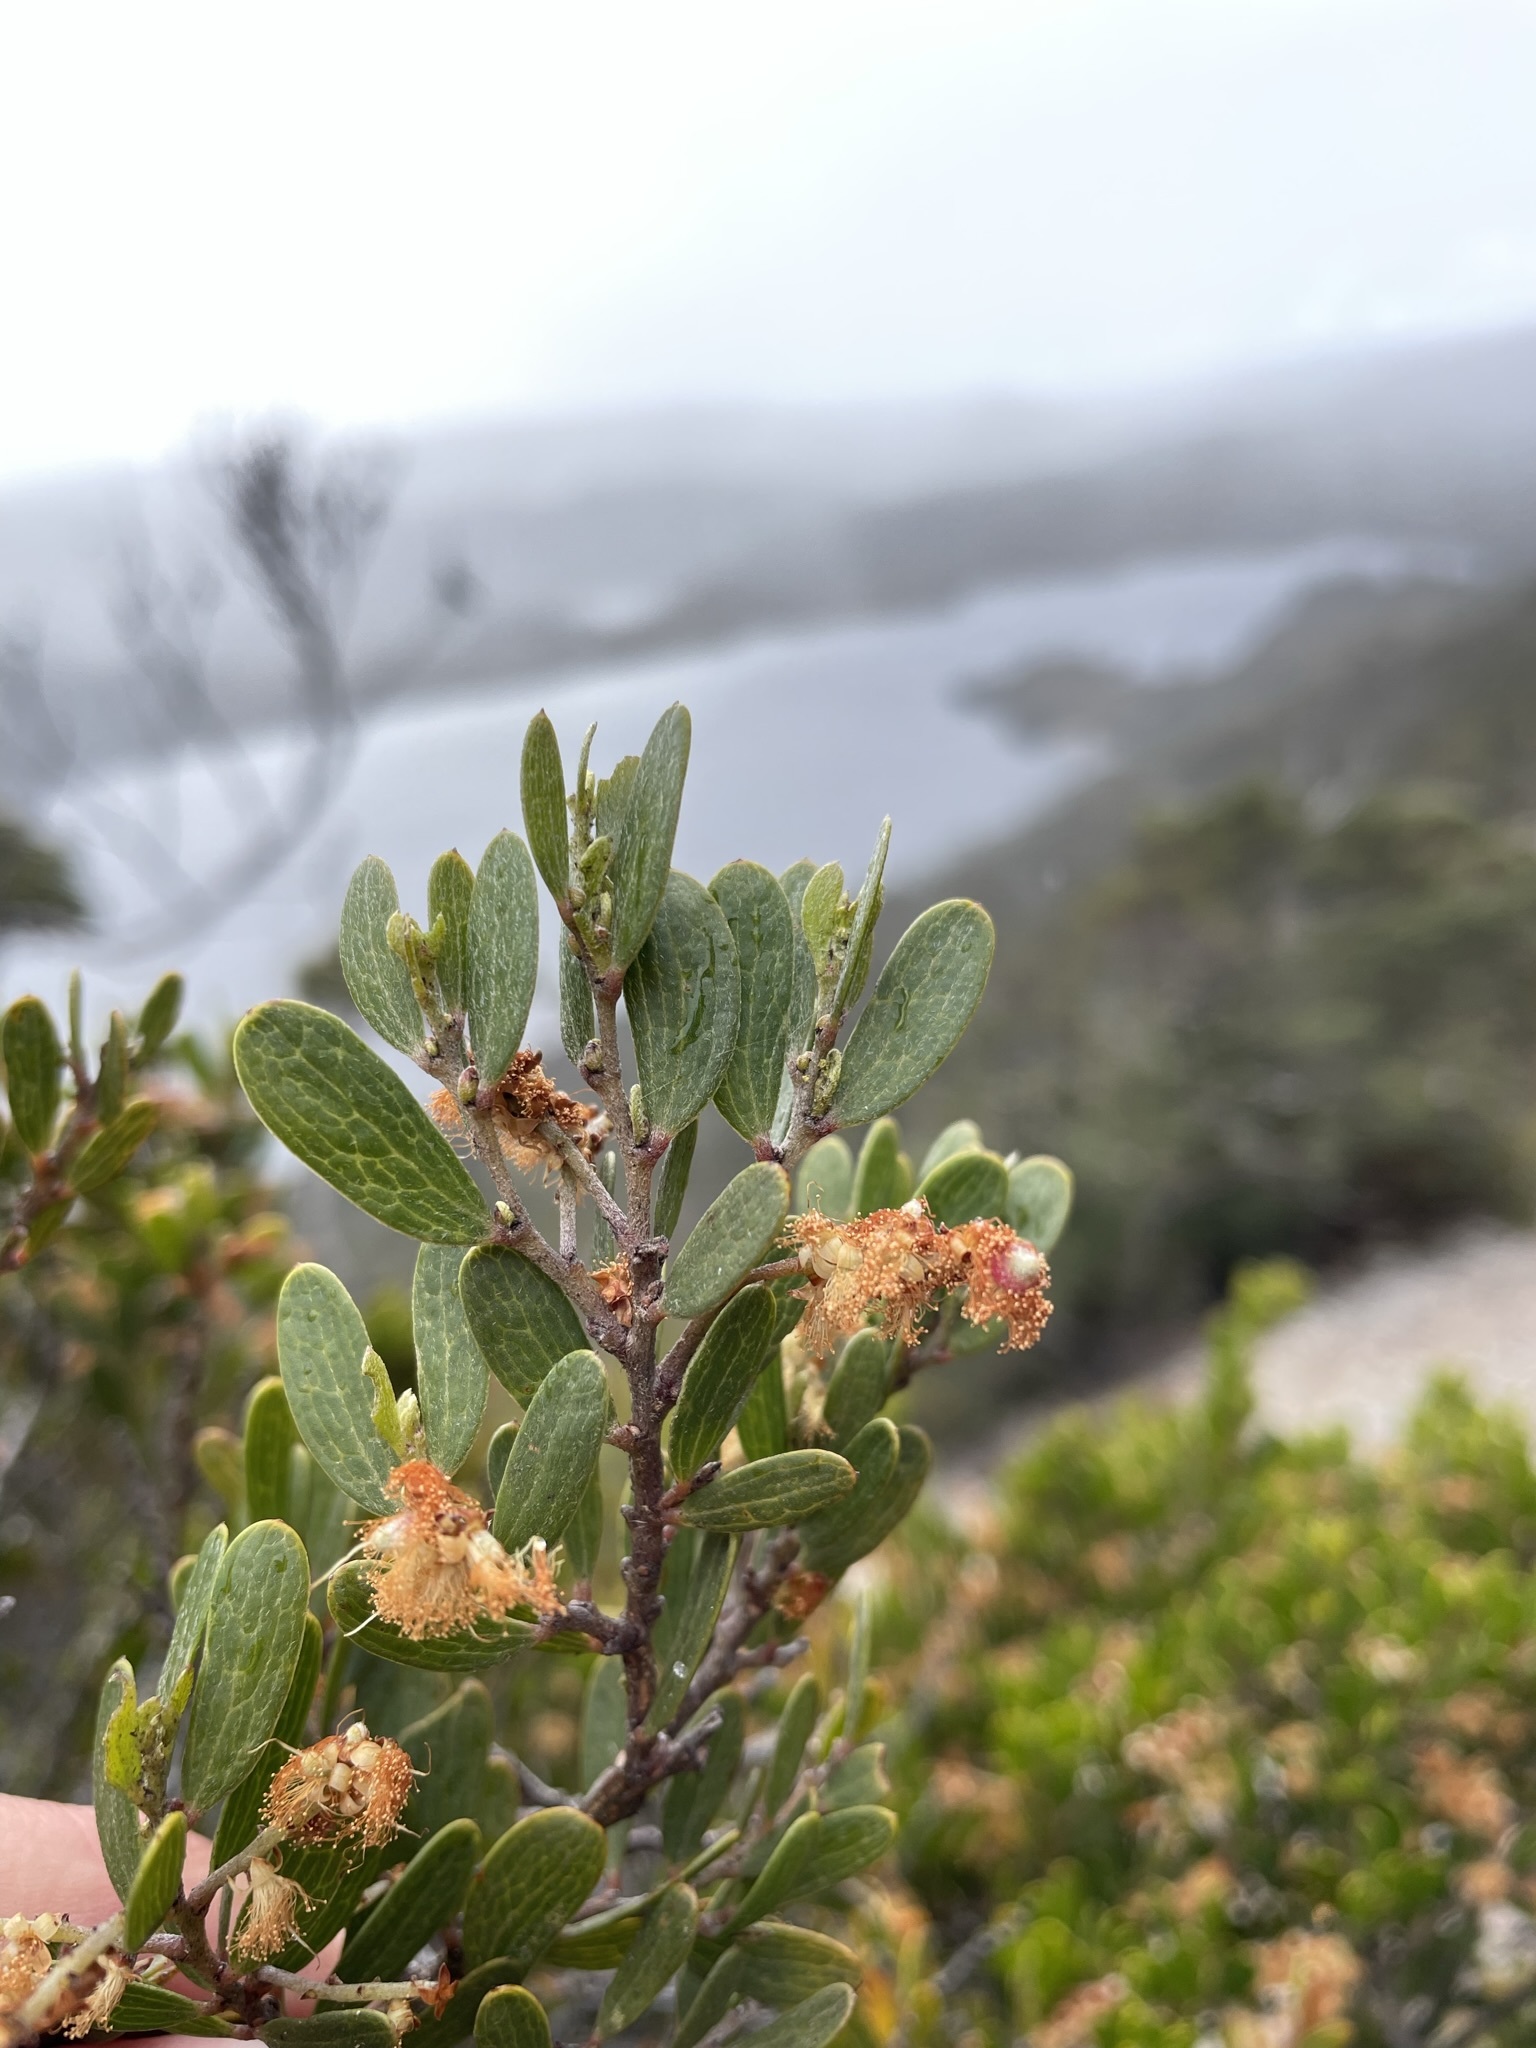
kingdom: Plantae
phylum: Tracheophyta
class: Magnoliopsida
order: Fabales
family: Fabaceae
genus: Acacia
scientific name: Acacia mucronata
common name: Variable sallow wattle
